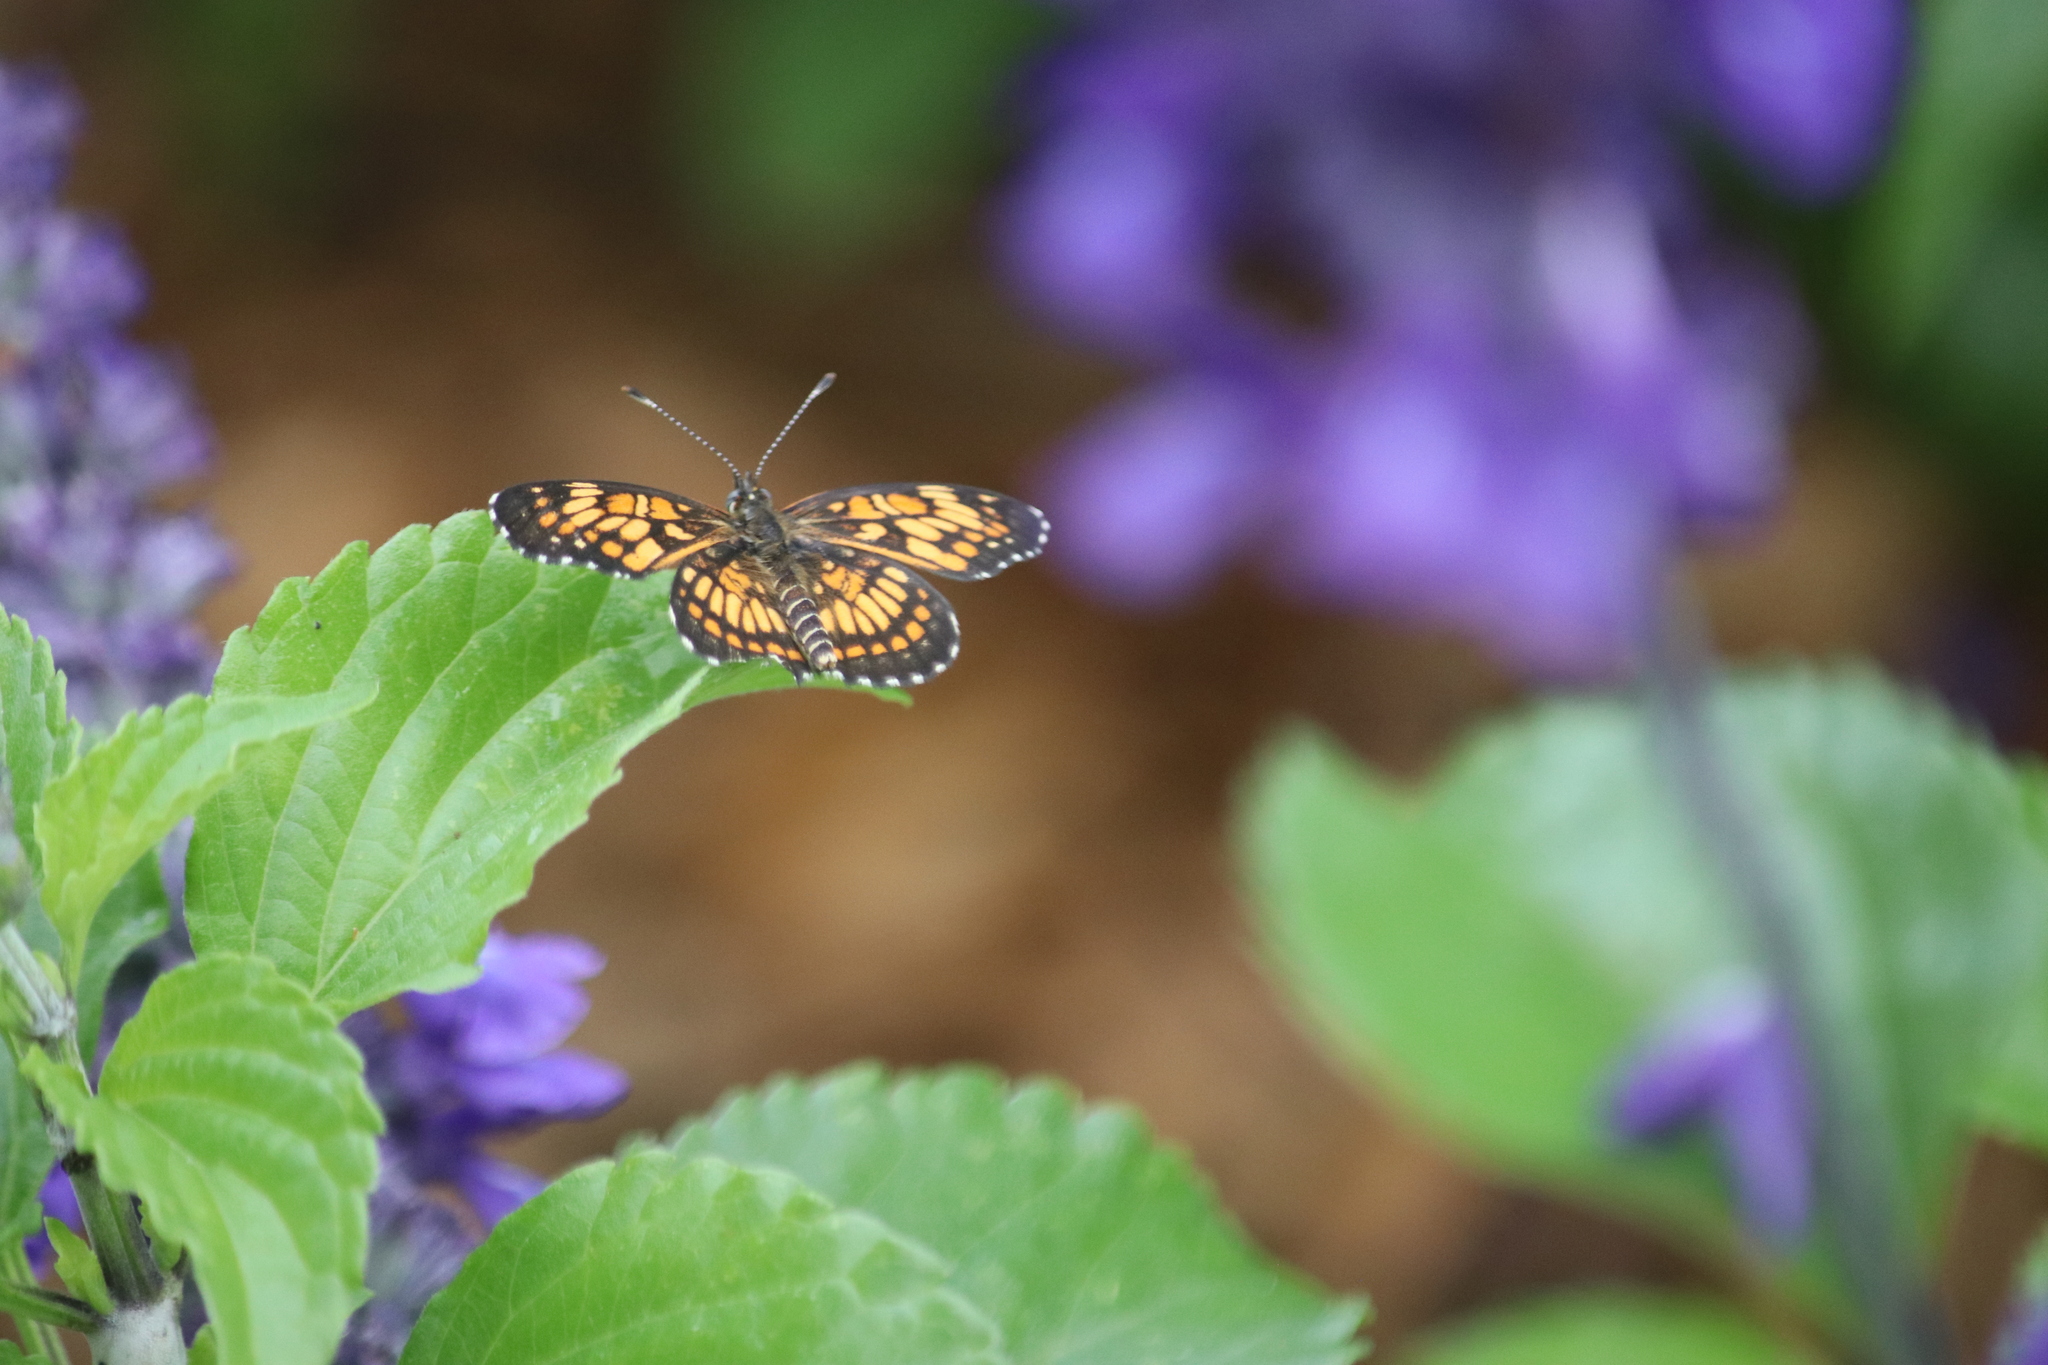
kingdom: Animalia
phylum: Arthropoda
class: Insecta
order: Lepidoptera
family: Nymphalidae
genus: Thessalia
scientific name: Thessalia theona
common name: Nymphalid moth
